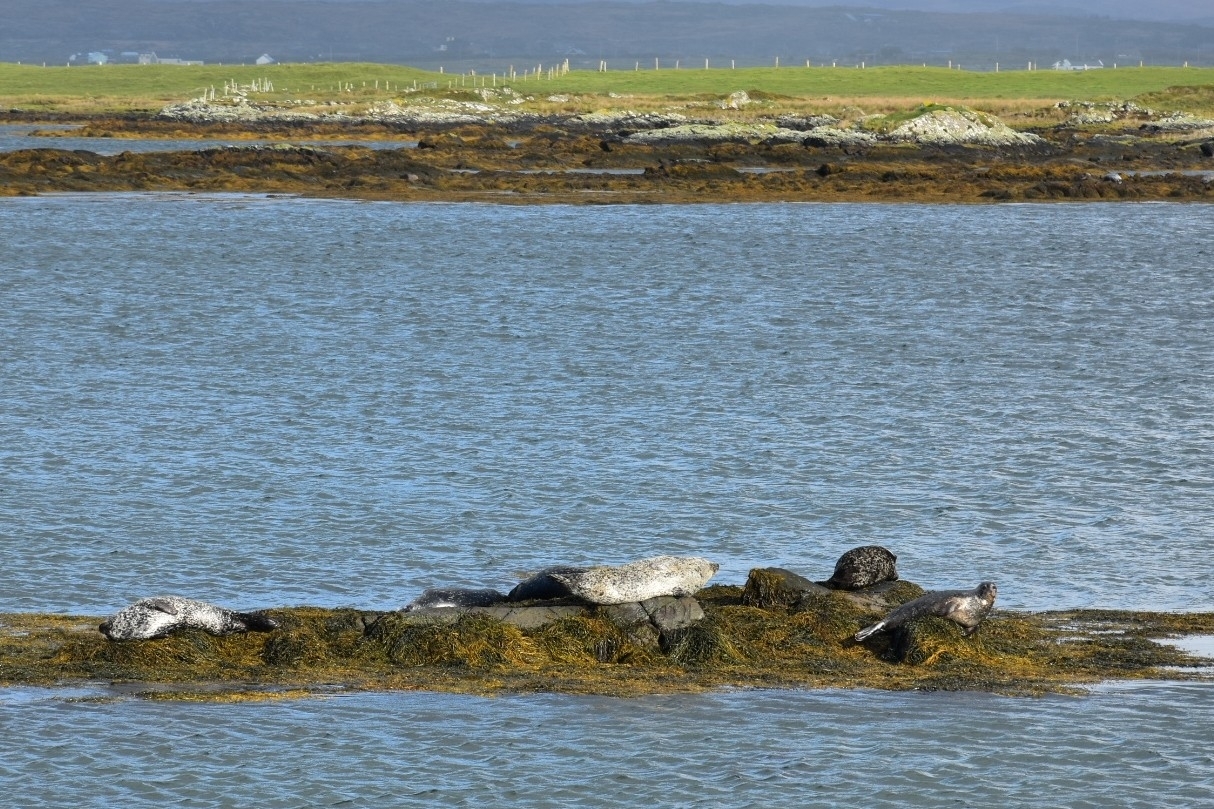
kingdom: Animalia
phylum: Chordata
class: Mammalia
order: Carnivora
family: Phocidae
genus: Phoca
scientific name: Phoca vitulina
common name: Harbor seal
